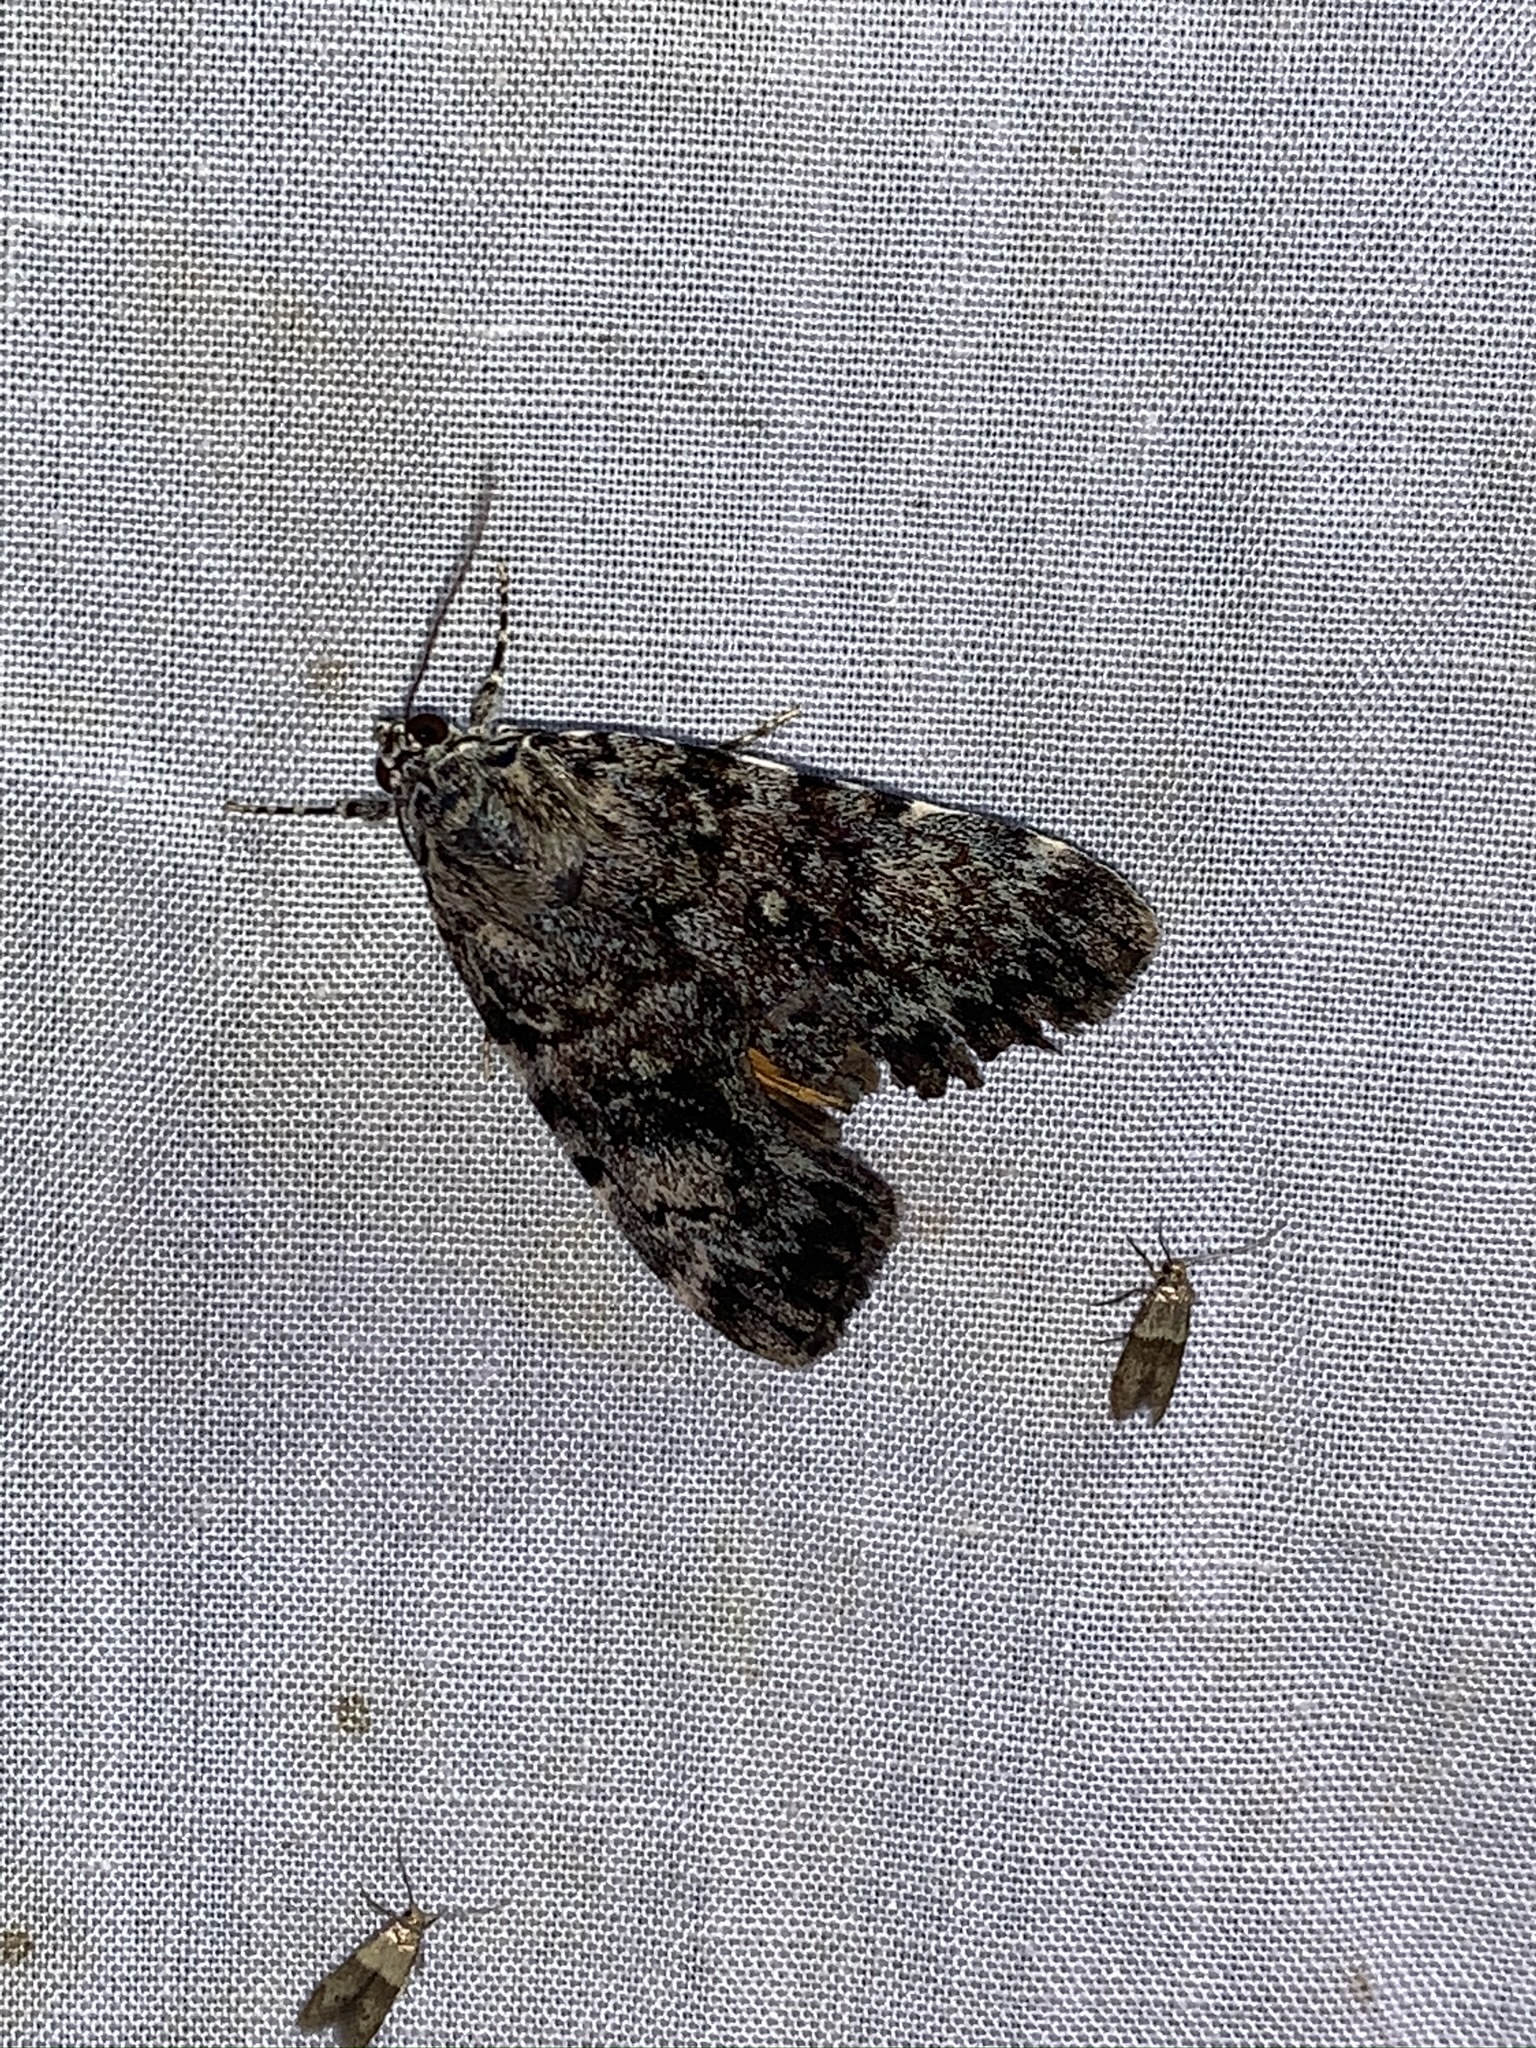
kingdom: Animalia
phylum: Arthropoda
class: Insecta
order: Lepidoptera
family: Erebidae
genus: Catocala
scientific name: Catocala lineella
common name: Little lined underwing
